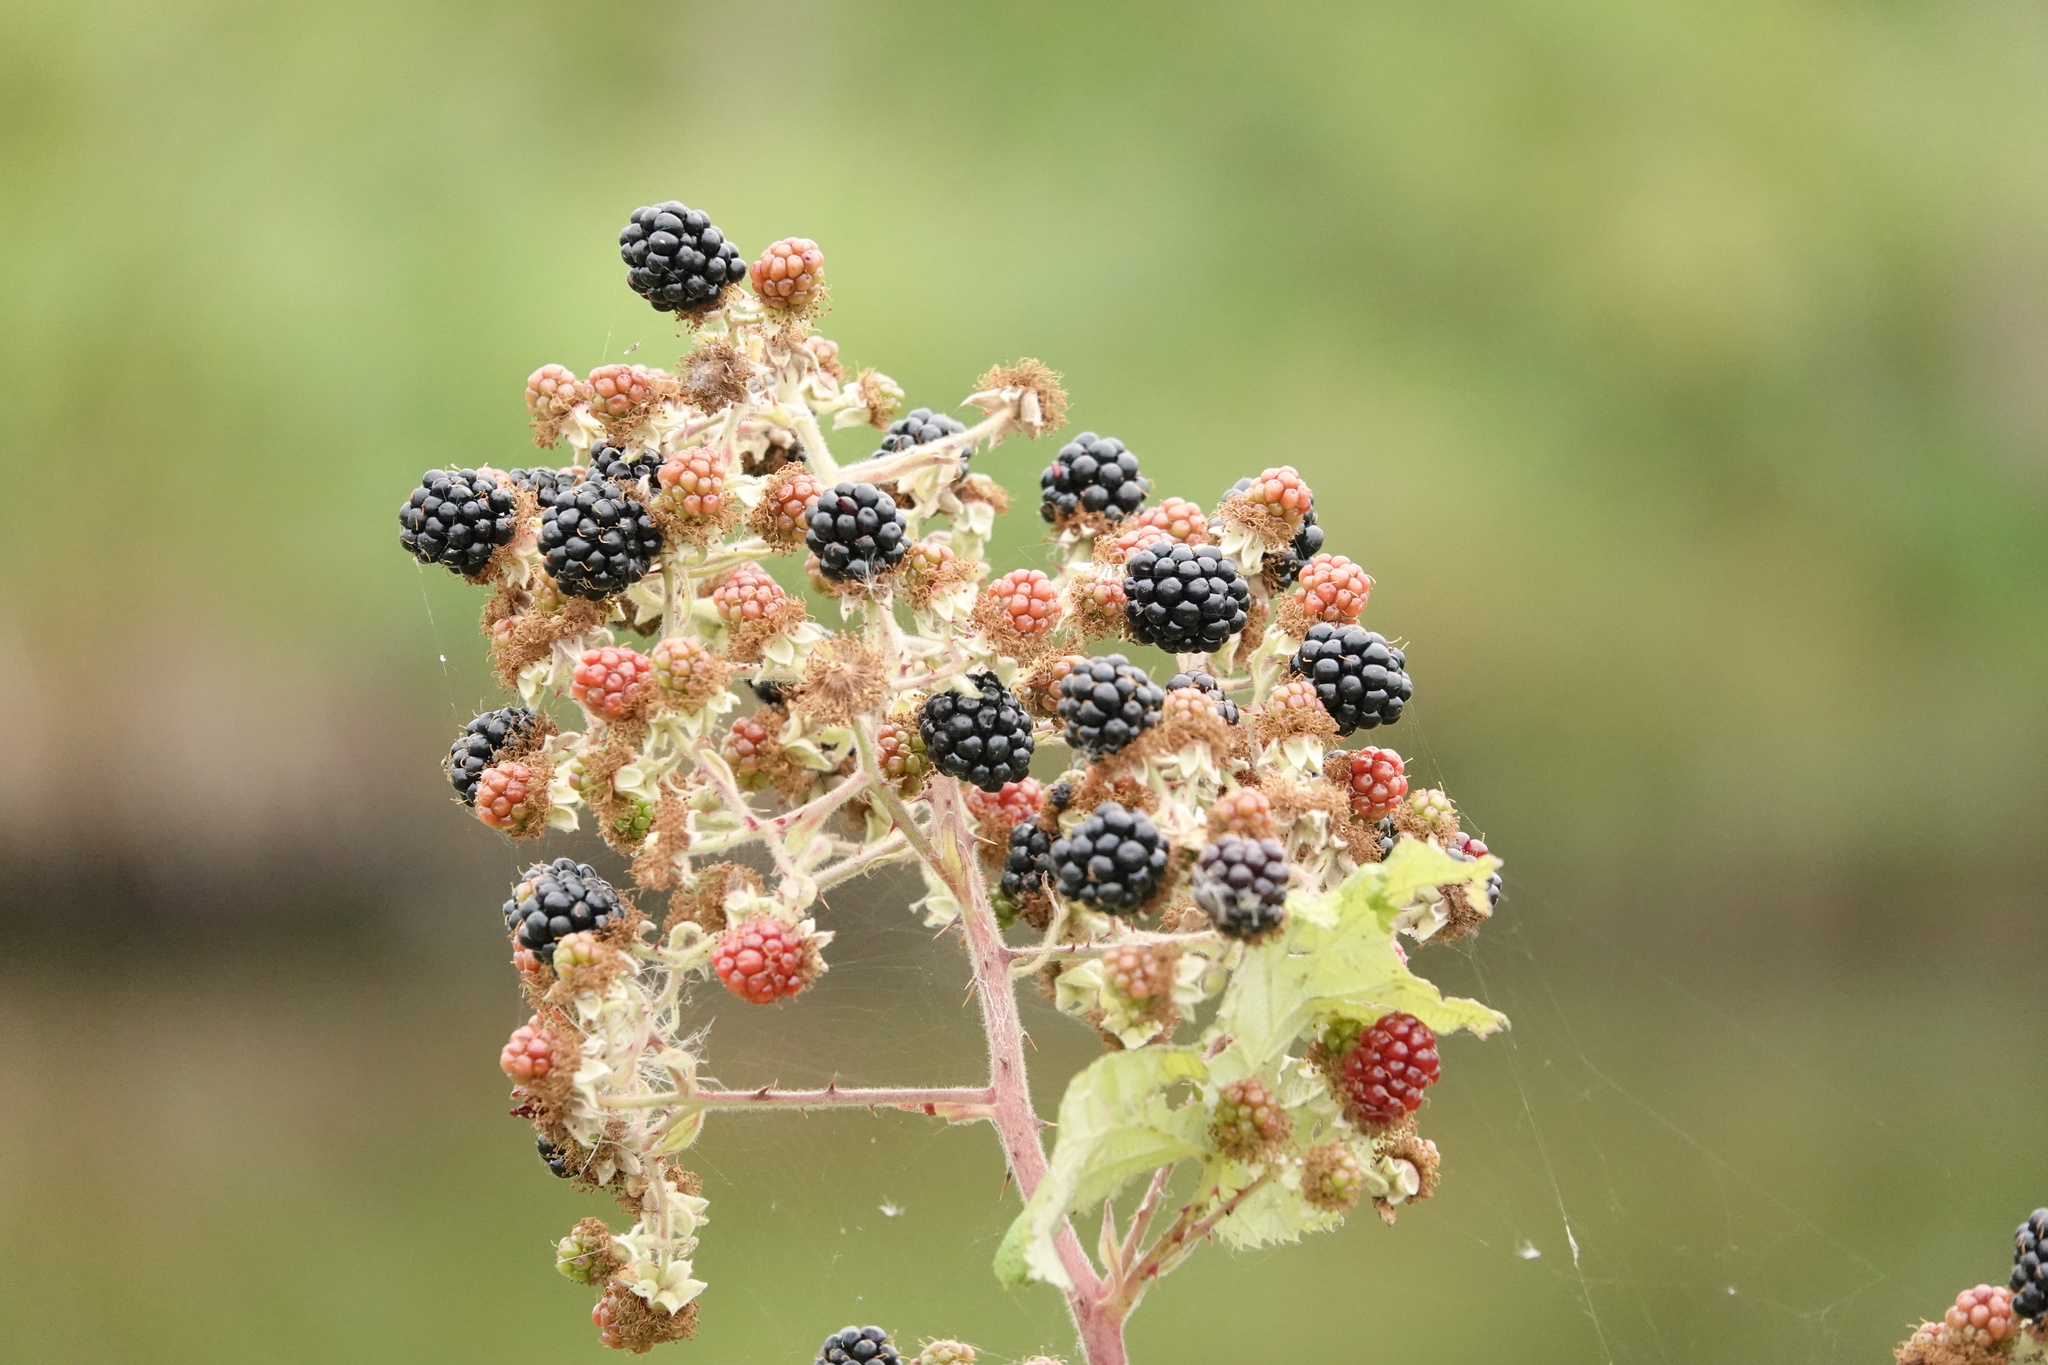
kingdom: Plantae
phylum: Tracheophyta
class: Magnoliopsida
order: Rosales
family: Rosaceae
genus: Rubus
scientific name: Rubus armeniacus
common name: Himalayan blackberry
